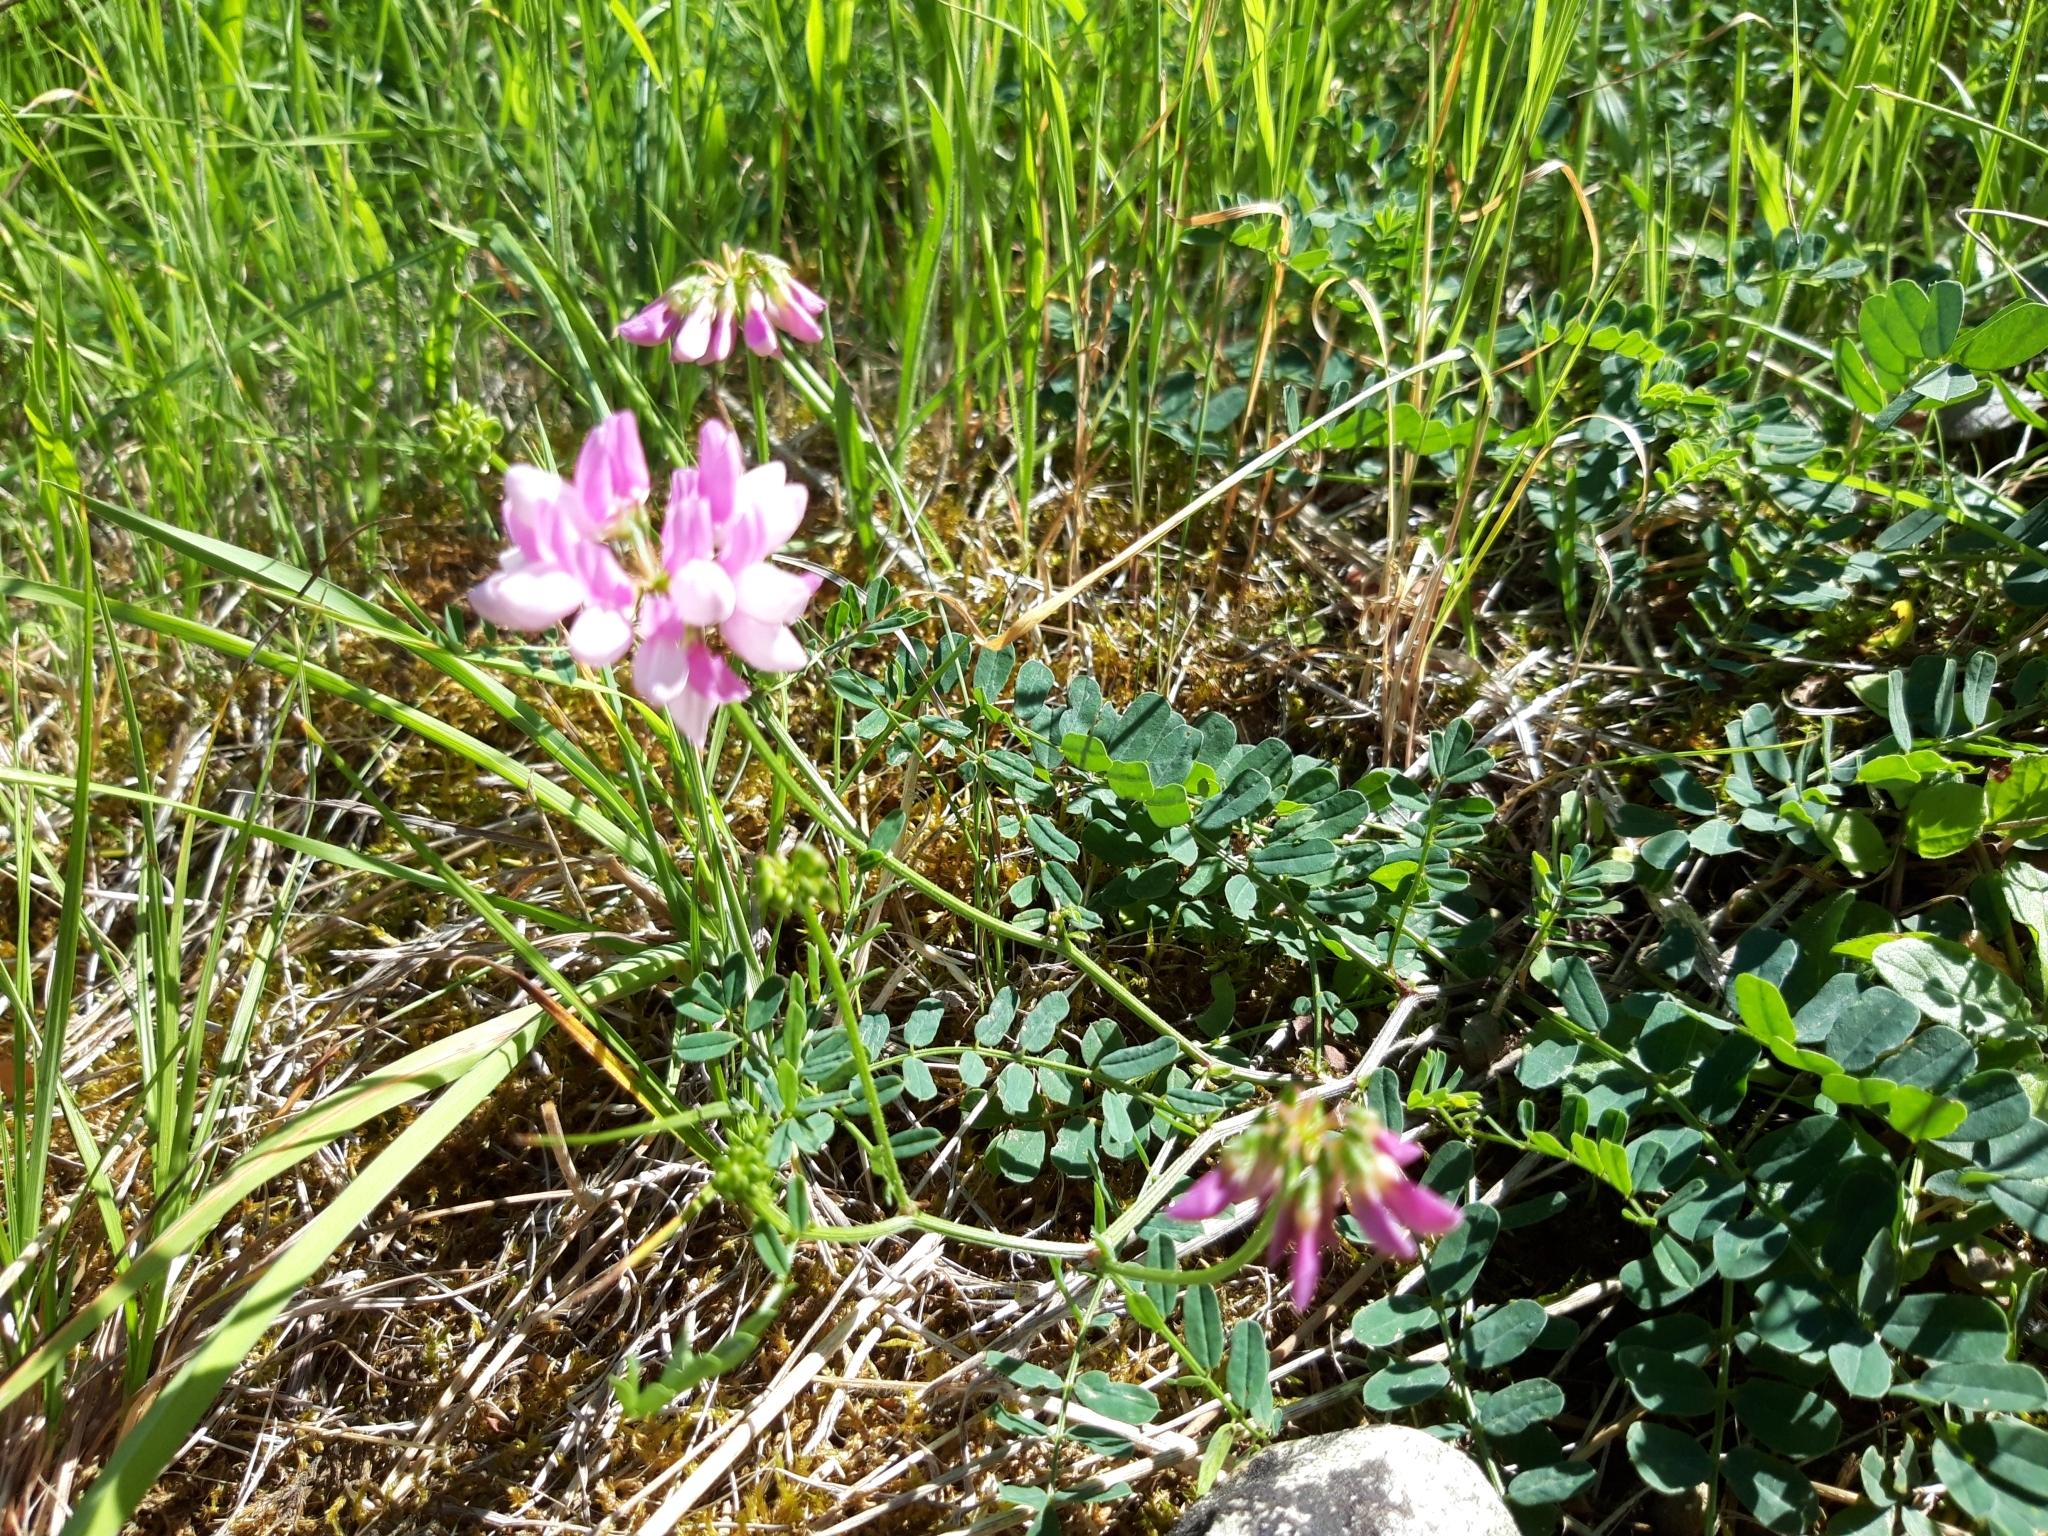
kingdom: Plantae
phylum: Tracheophyta
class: Magnoliopsida
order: Fabales
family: Fabaceae
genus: Coronilla
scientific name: Coronilla varia
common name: Crownvetch
